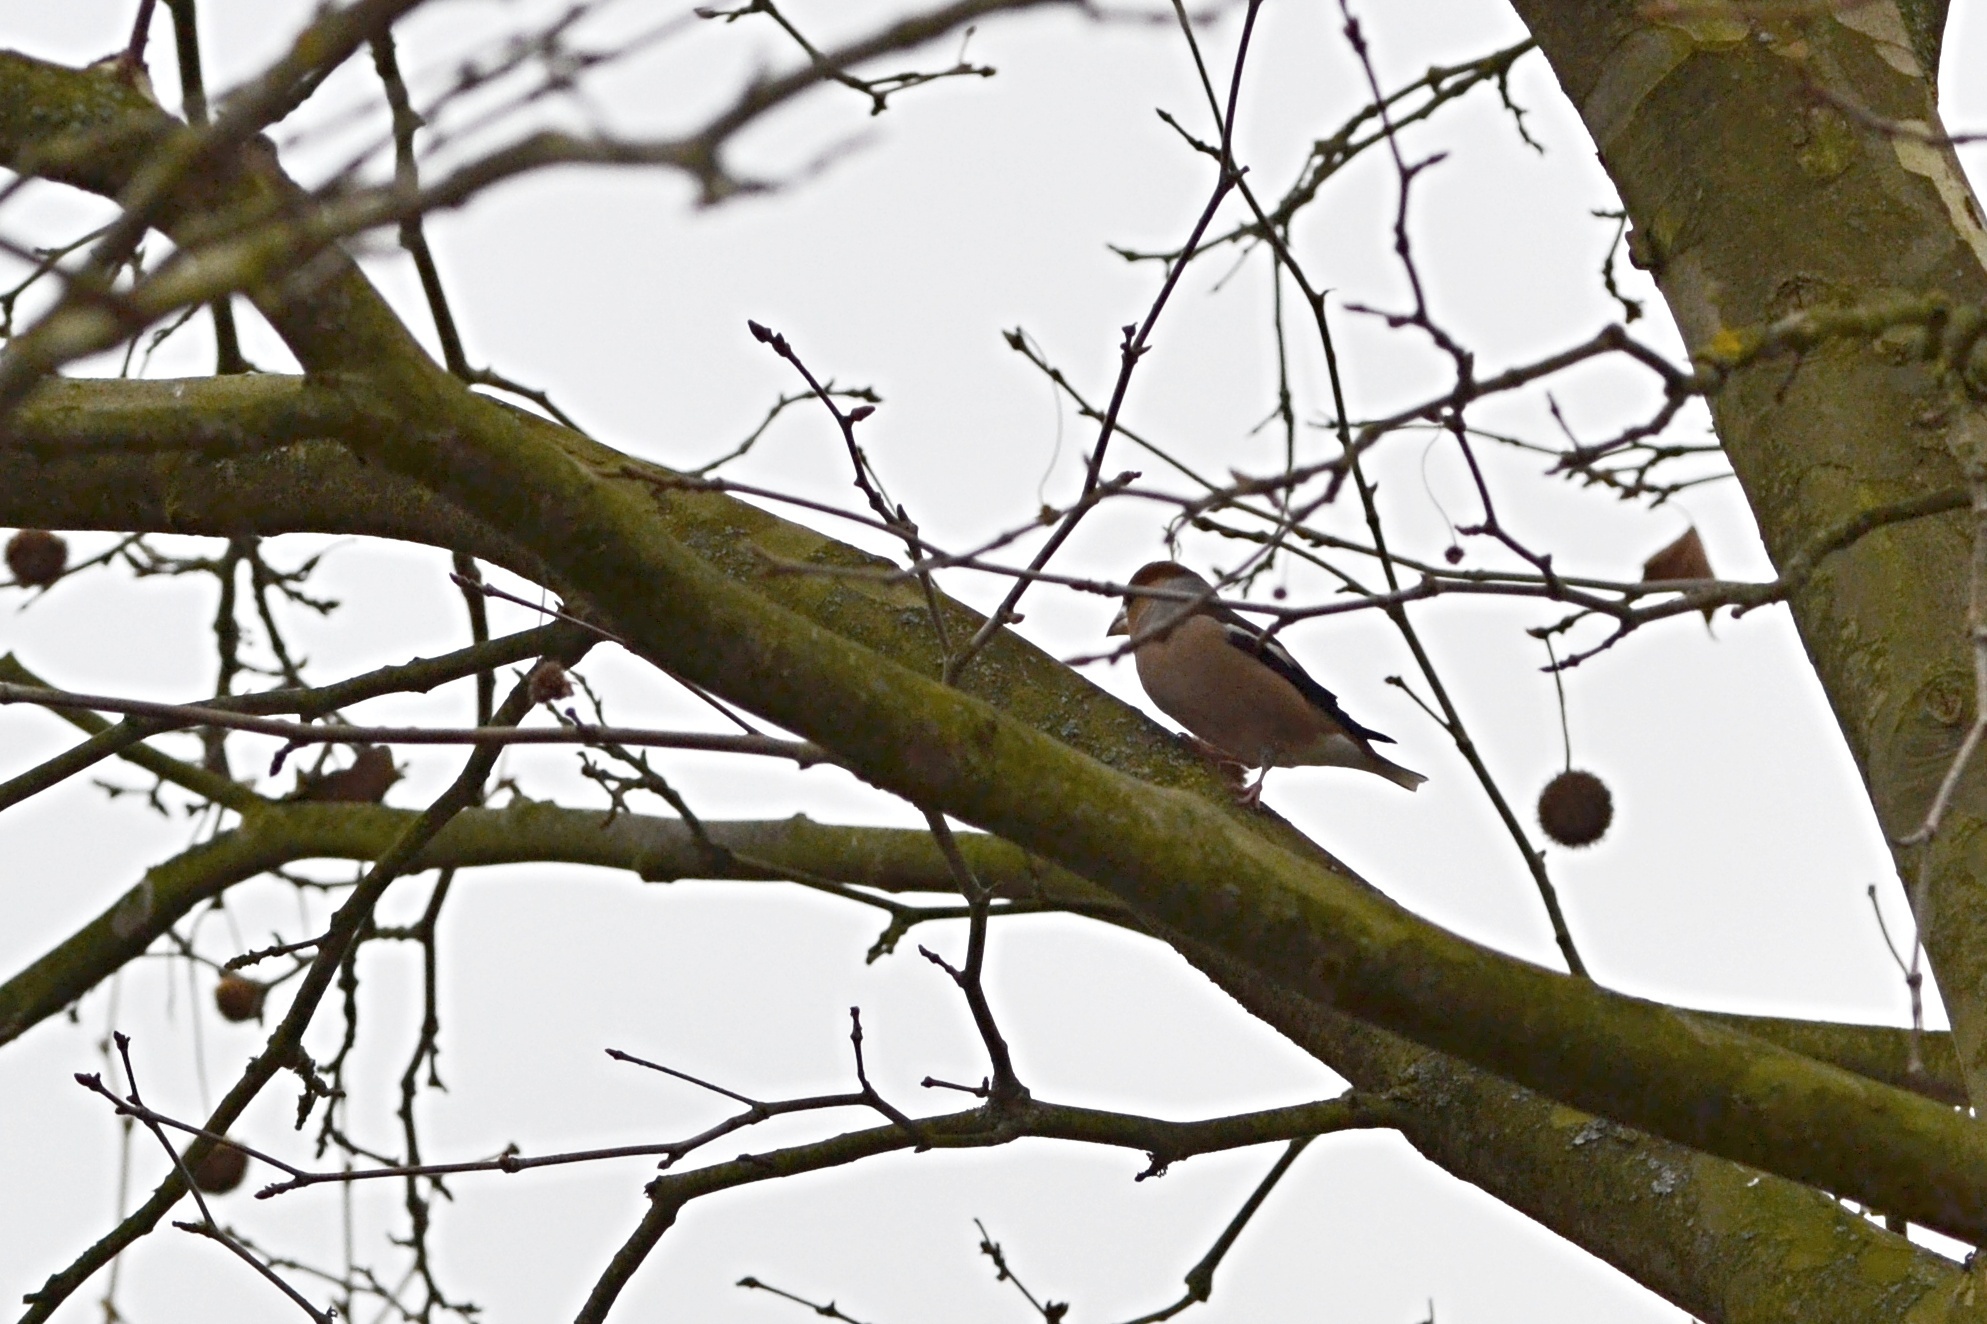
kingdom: Animalia
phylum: Chordata
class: Aves
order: Passeriformes
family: Fringillidae
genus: Coccothraustes
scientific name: Coccothraustes coccothraustes
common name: Hawfinch
